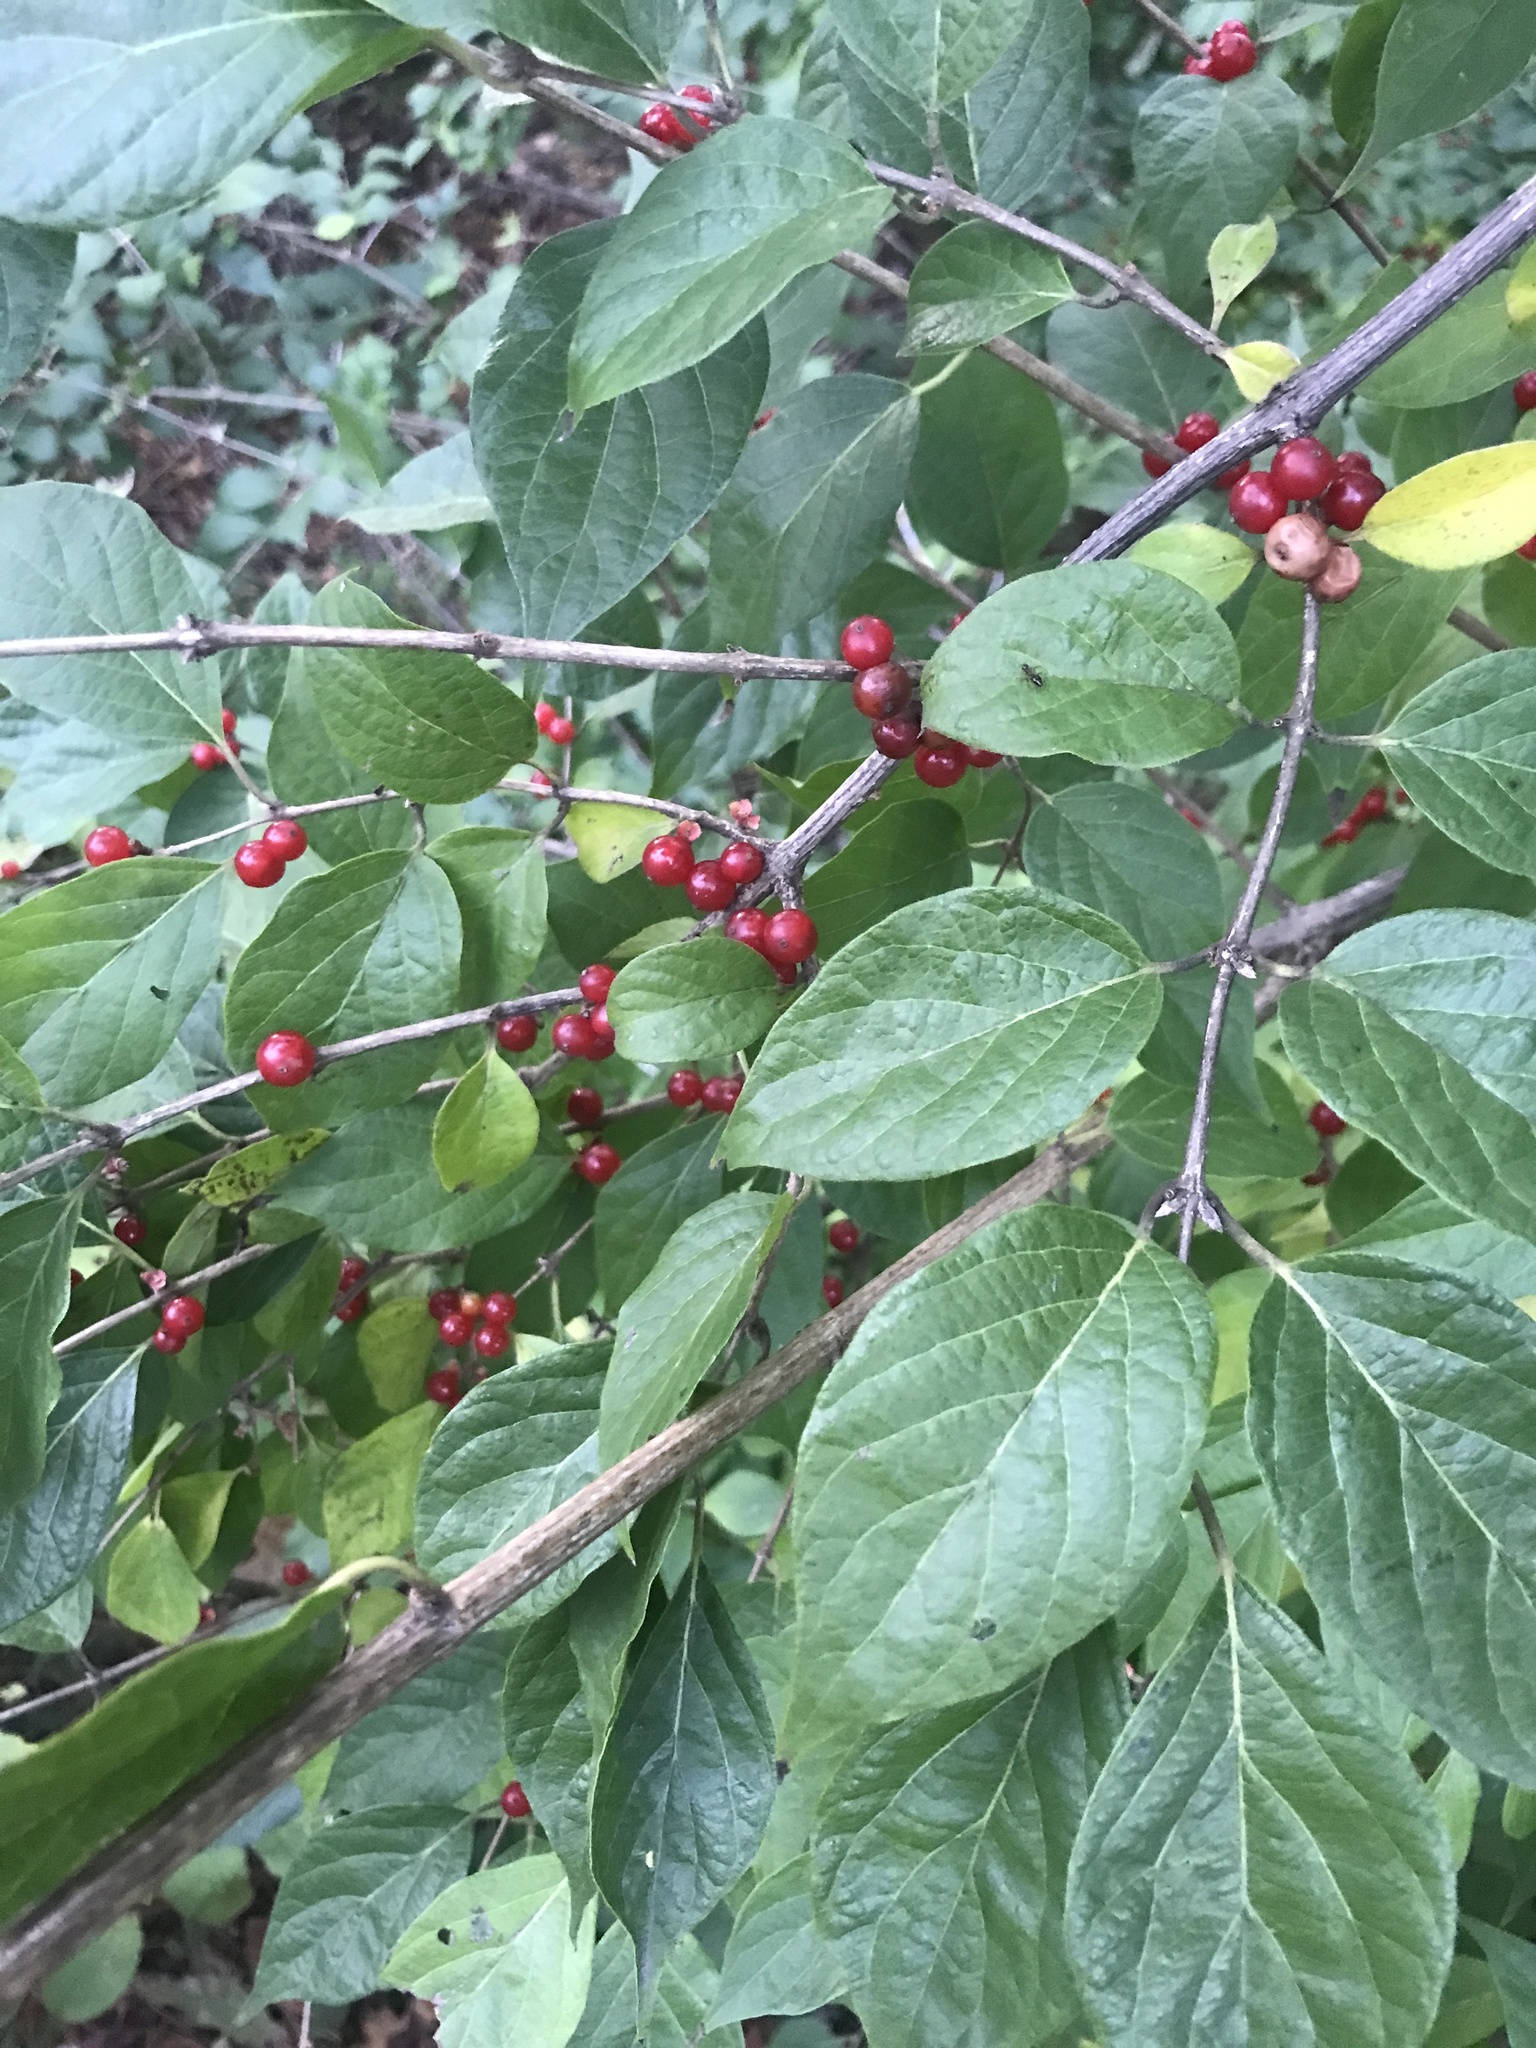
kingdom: Plantae
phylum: Tracheophyta
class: Magnoliopsida
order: Dipsacales
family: Caprifoliaceae
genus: Lonicera
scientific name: Lonicera maackii
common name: Amur honeysuckle
